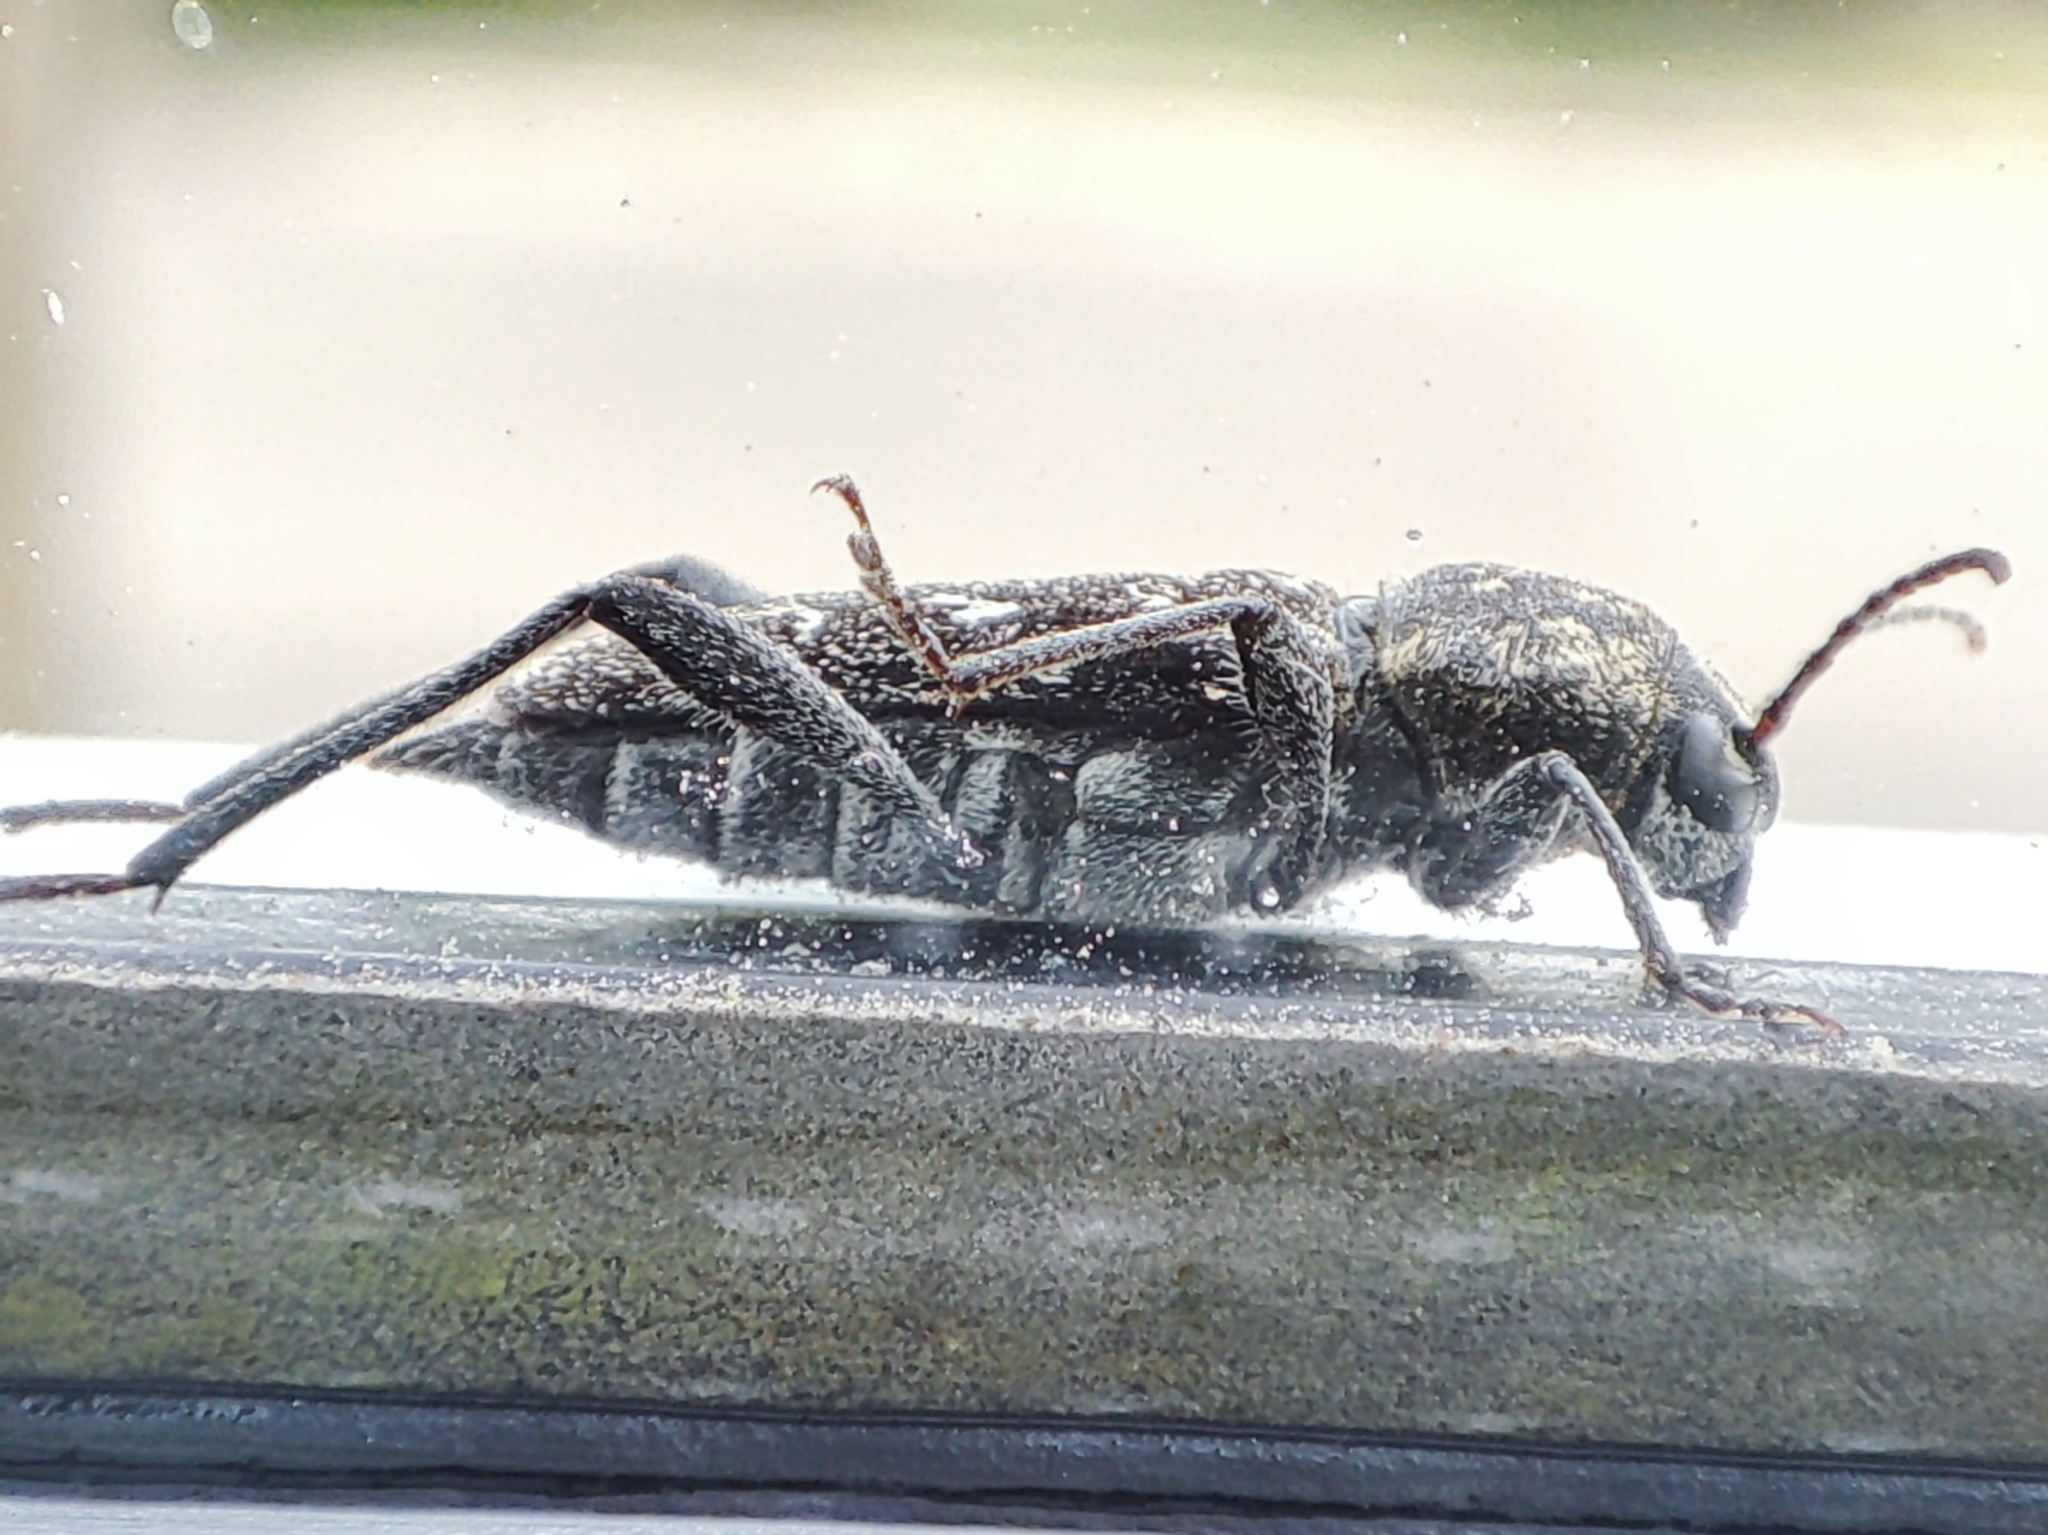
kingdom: Animalia
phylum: Arthropoda
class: Insecta
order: Coleoptera
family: Cerambycidae
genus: Xylotrechus
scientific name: Xylotrechus rusticus
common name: Grey tiger long-horned beetle
